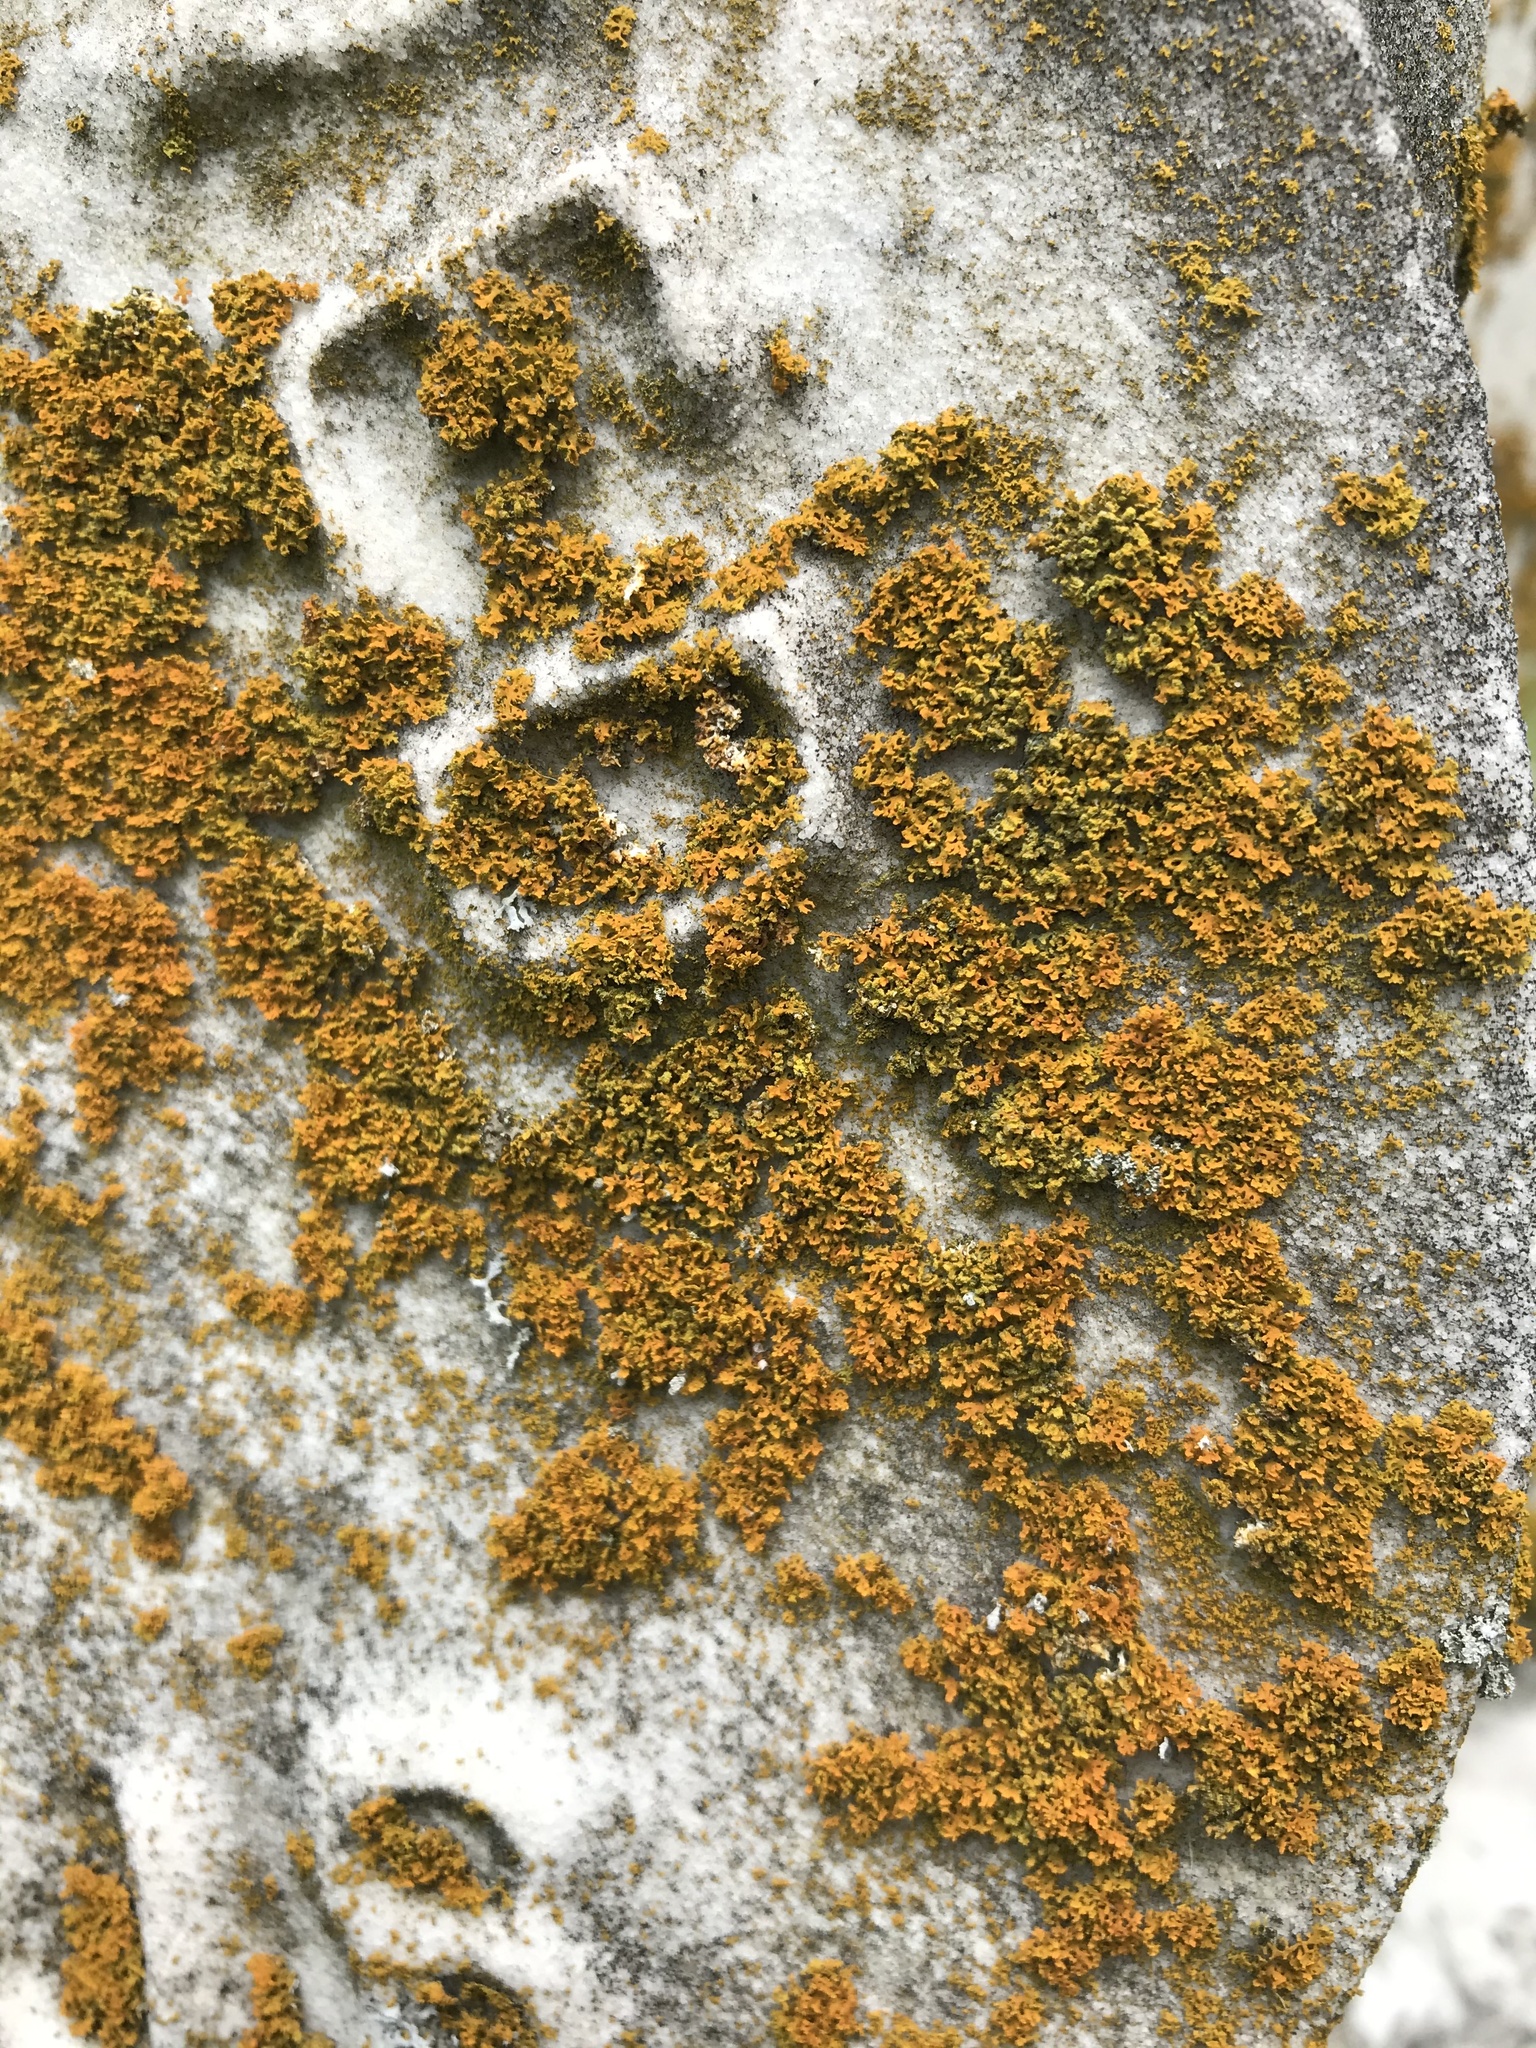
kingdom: Fungi
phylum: Ascomycota
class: Lecanoromycetes
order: Teloschistales
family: Teloschistaceae
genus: Gallowayella
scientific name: Gallowayella weberi
